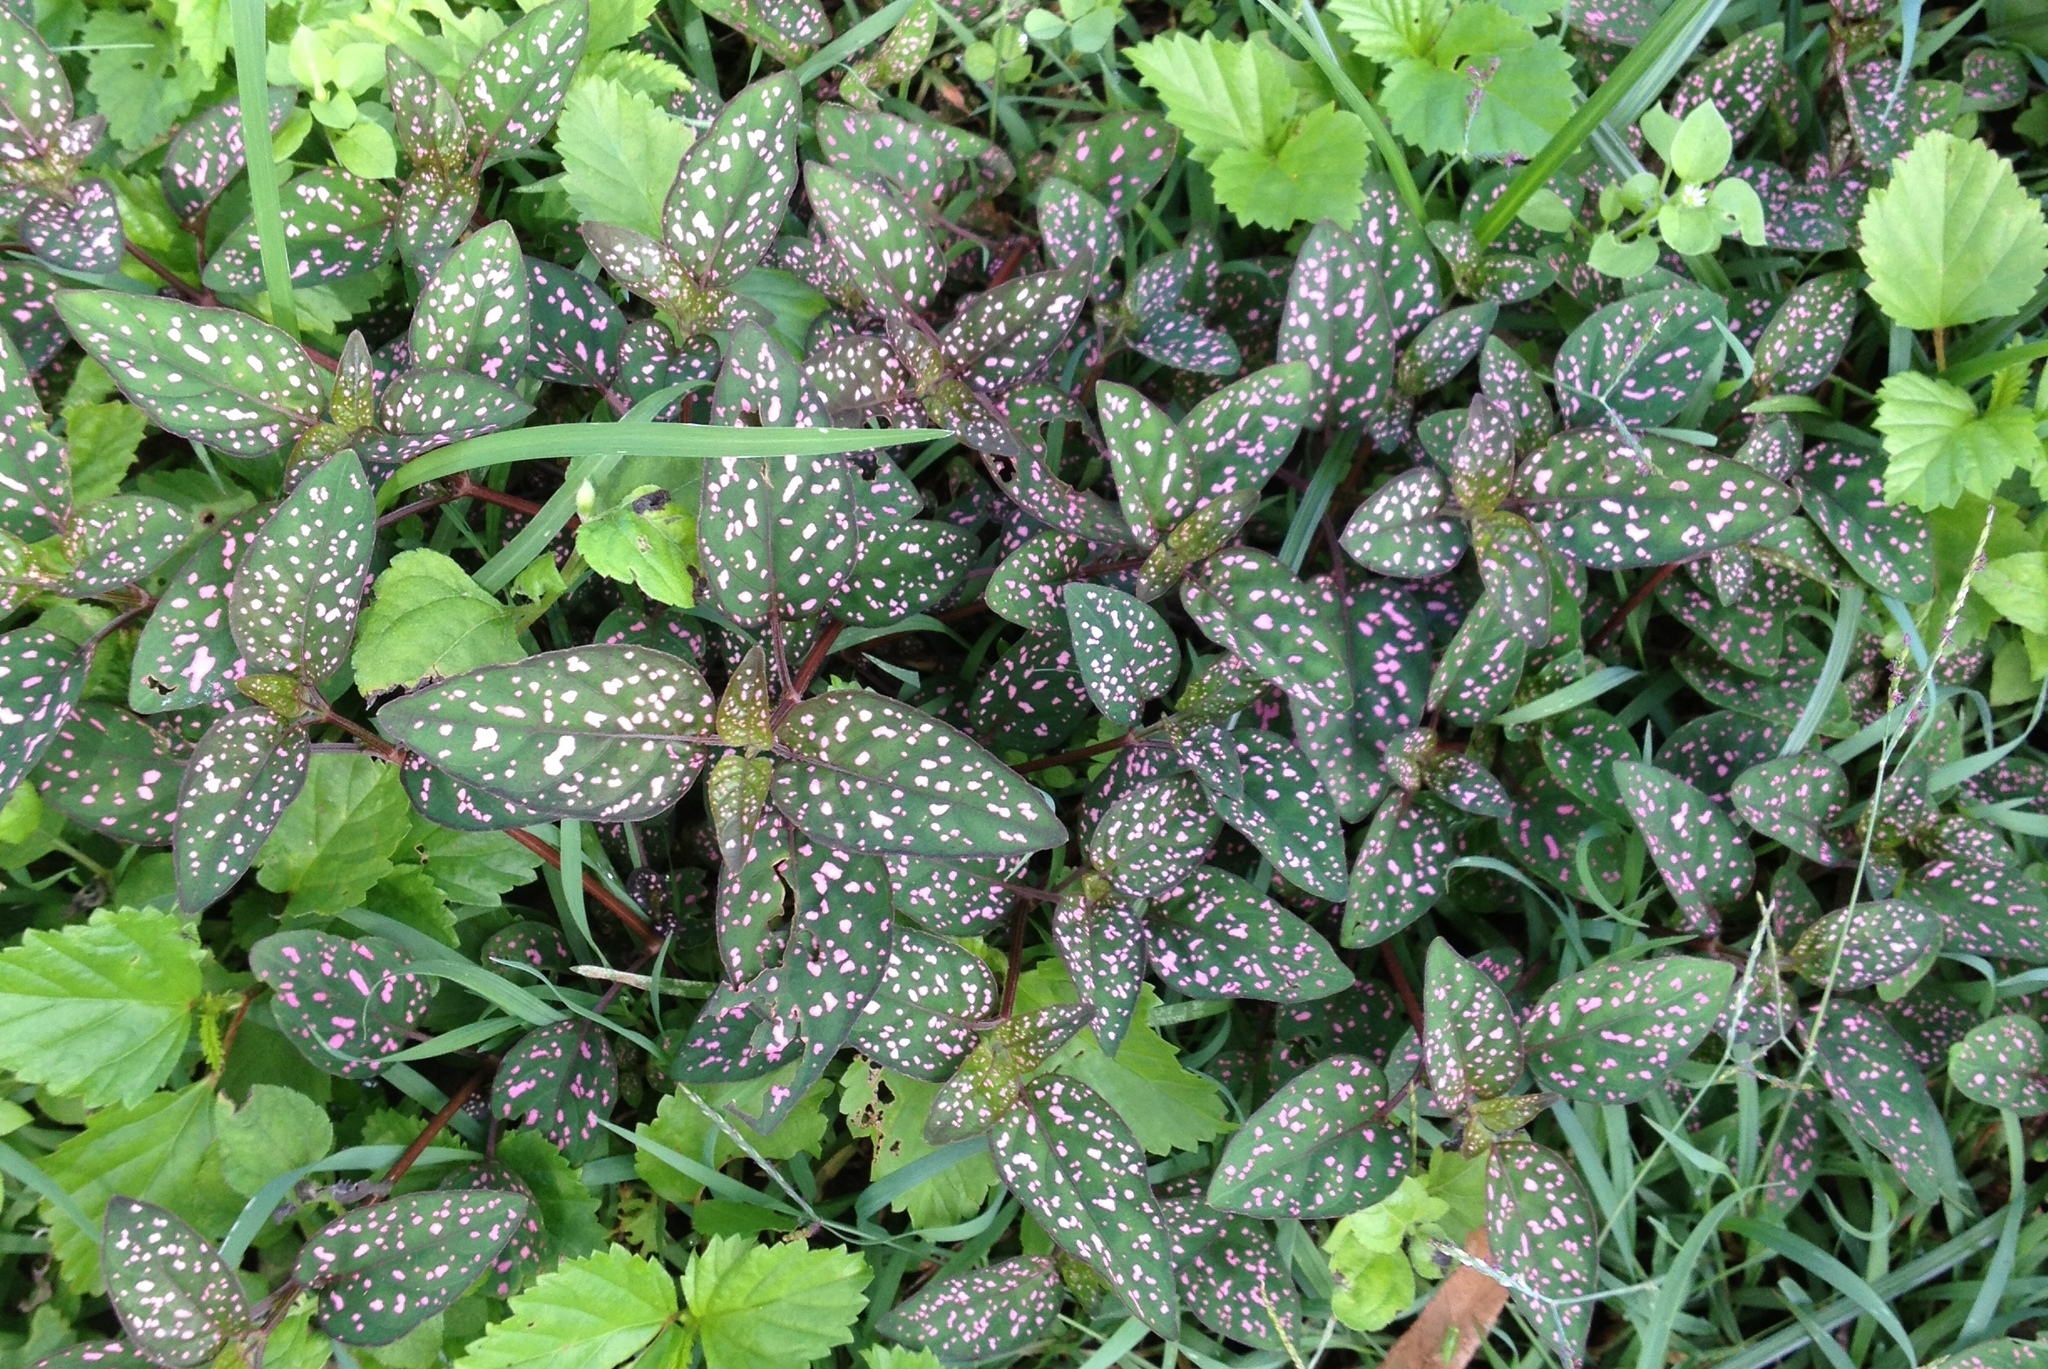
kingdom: Plantae
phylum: Tracheophyta
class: Magnoliopsida
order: Lamiales
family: Acanthaceae
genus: Hypoestes
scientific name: Hypoestes phyllostachya
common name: Polkadot-plant
